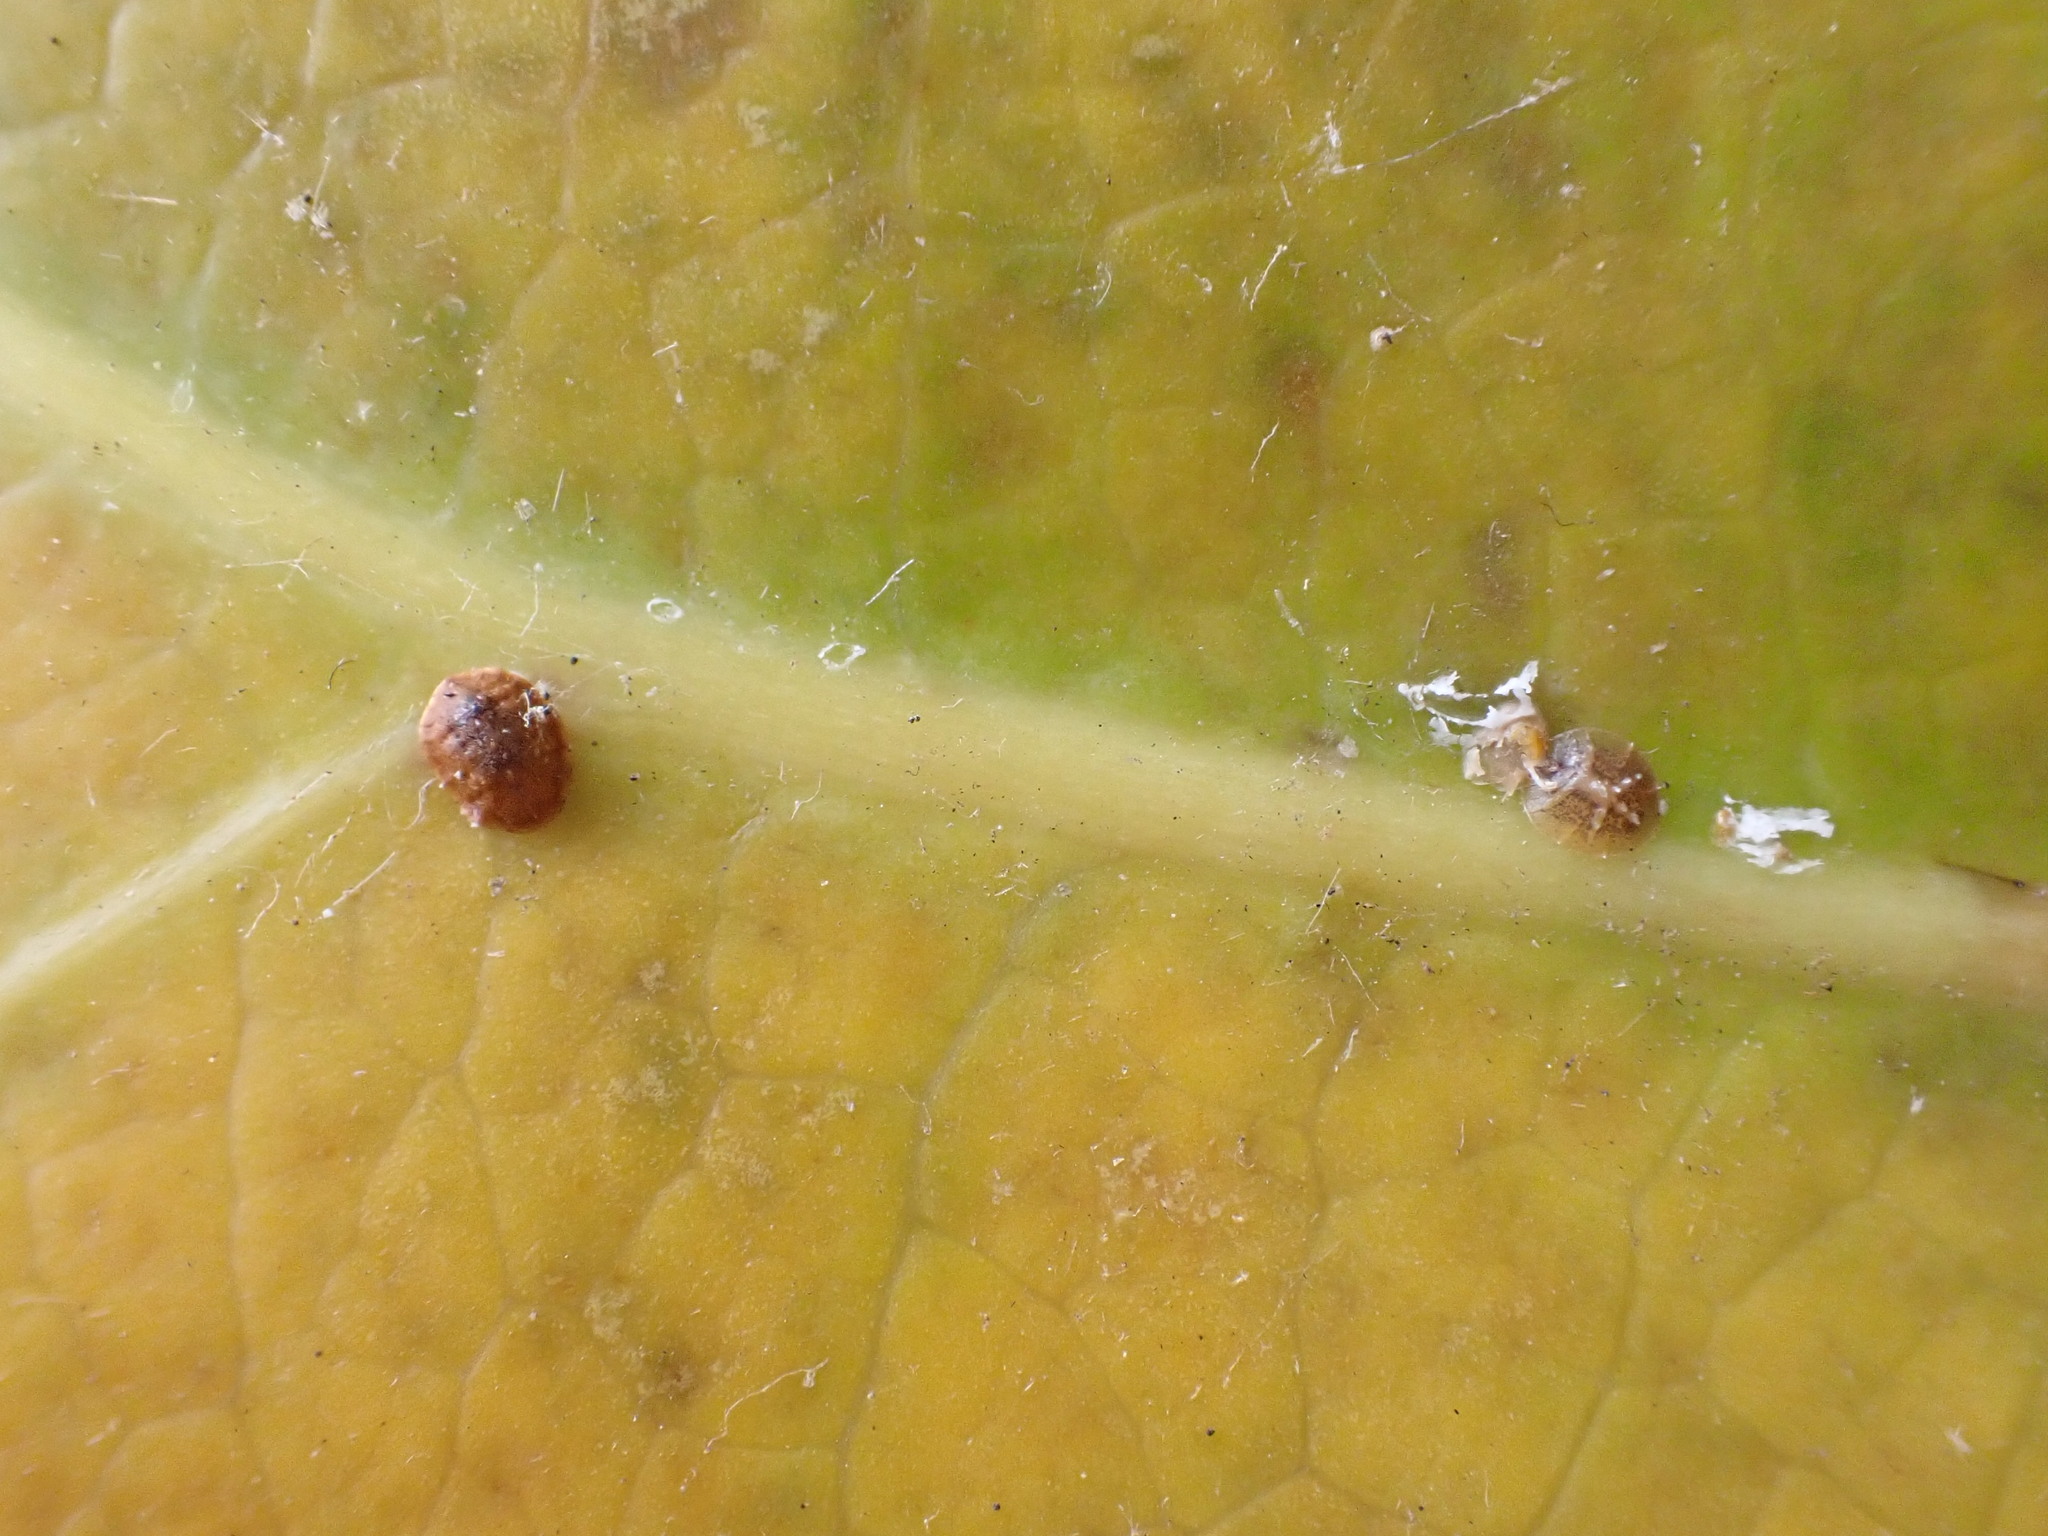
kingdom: Animalia
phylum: Arthropoda
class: Insecta
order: Hemiptera
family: Coccidae
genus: Coccus
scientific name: Coccus hesperidum
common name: Soft brown scale
